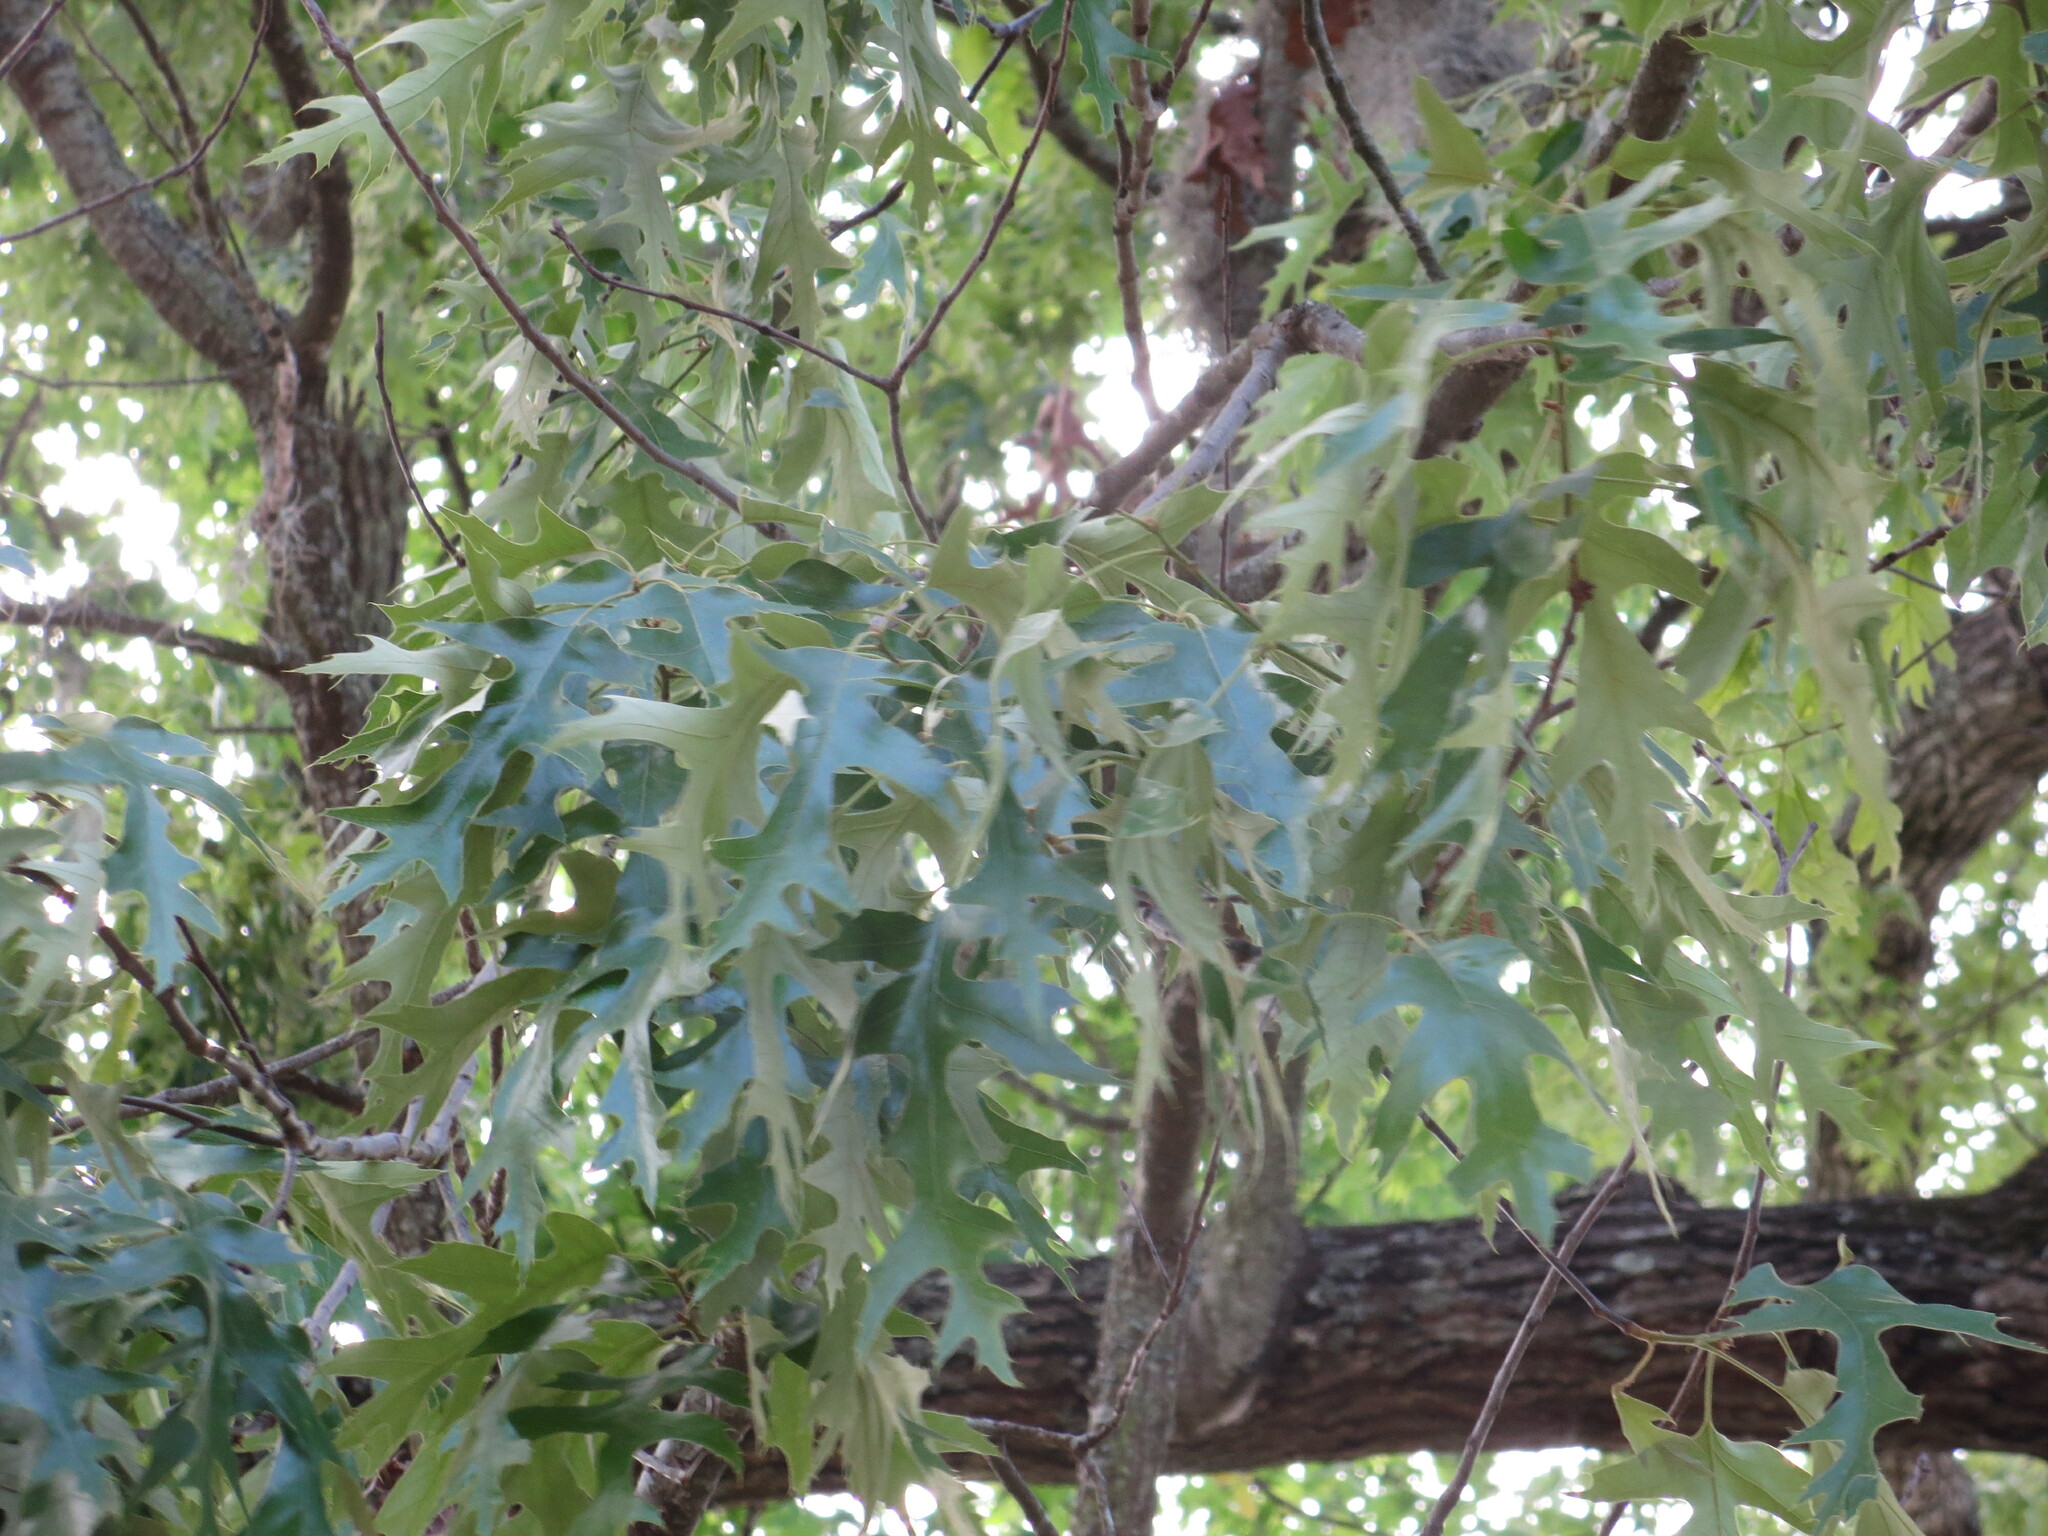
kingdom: Plantae
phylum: Tracheophyta
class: Magnoliopsida
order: Fagales
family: Fagaceae
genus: Quercus
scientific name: Quercus falcata
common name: Southern red oak
